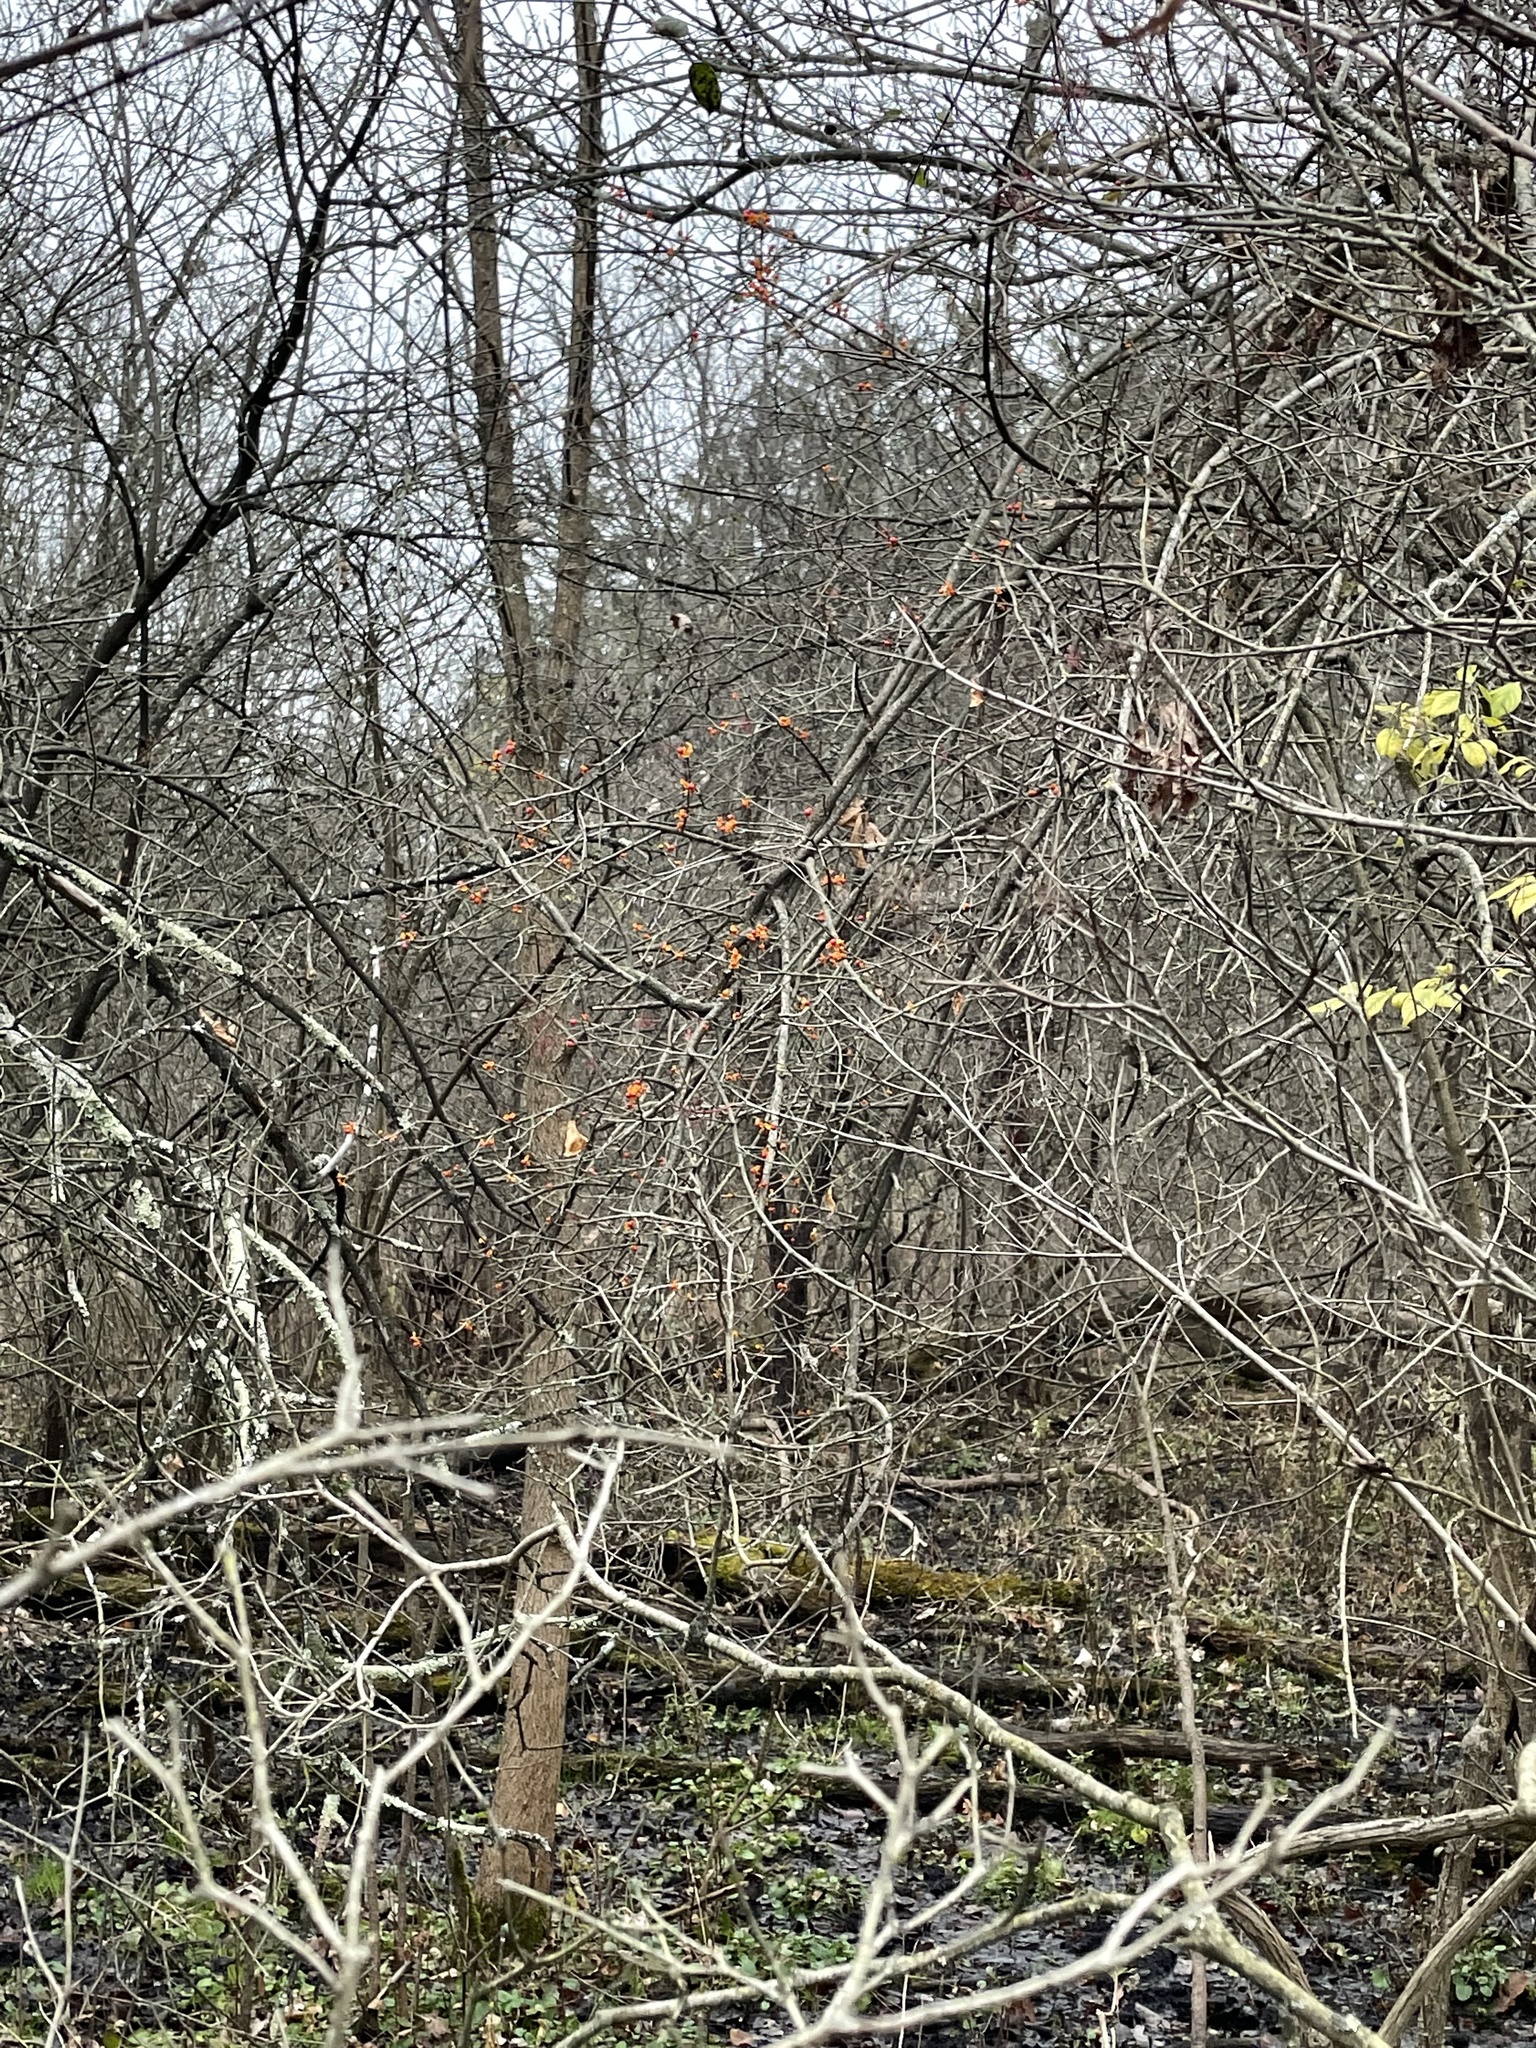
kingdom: Plantae
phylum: Tracheophyta
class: Magnoliopsida
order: Celastrales
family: Celastraceae
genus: Celastrus
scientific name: Celastrus orbiculatus
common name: Oriental bittersweet
